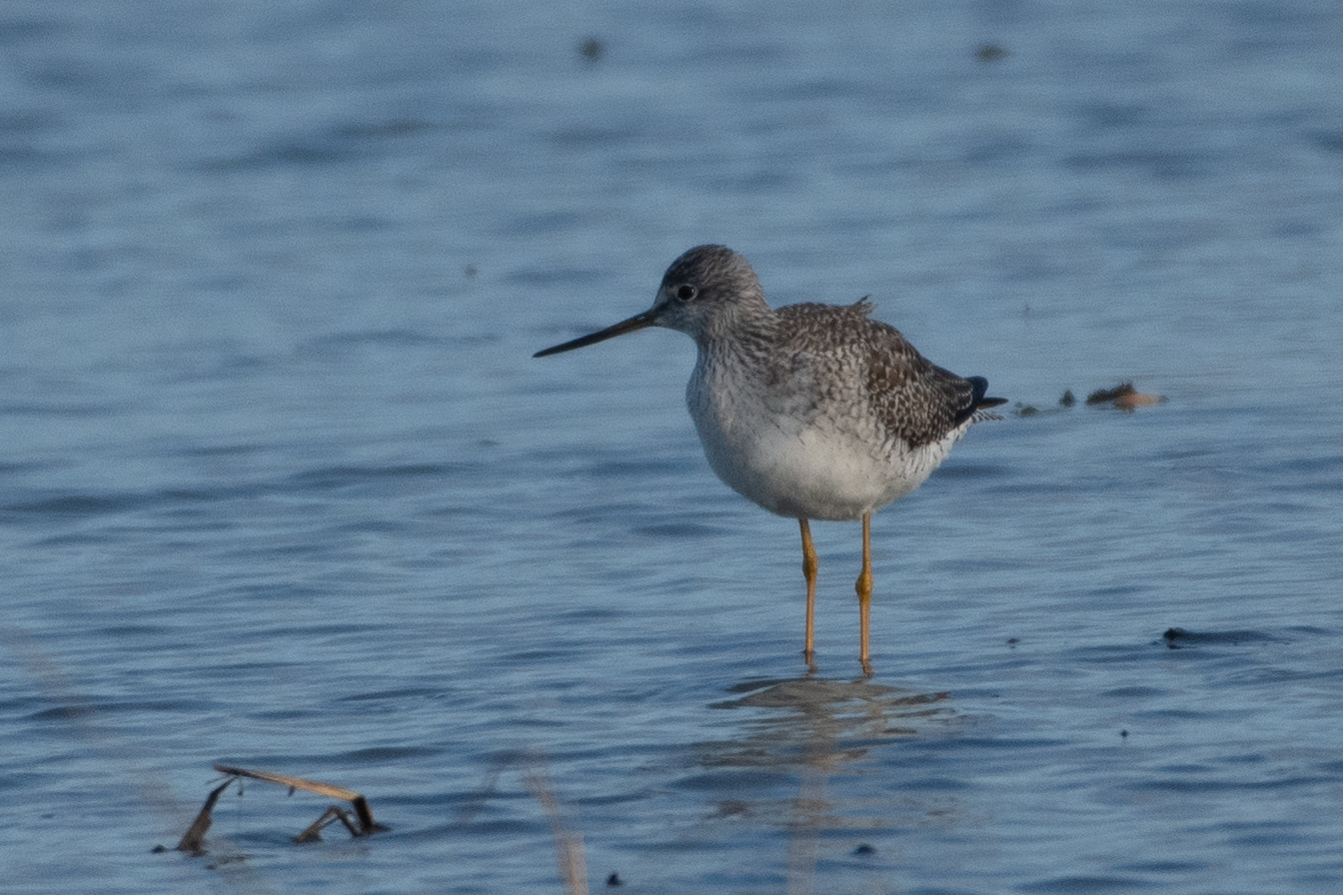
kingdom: Animalia
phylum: Chordata
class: Aves
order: Charadriiformes
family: Scolopacidae
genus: Tringa
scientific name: Tringa melanoleuca
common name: Greater yellowlegs
